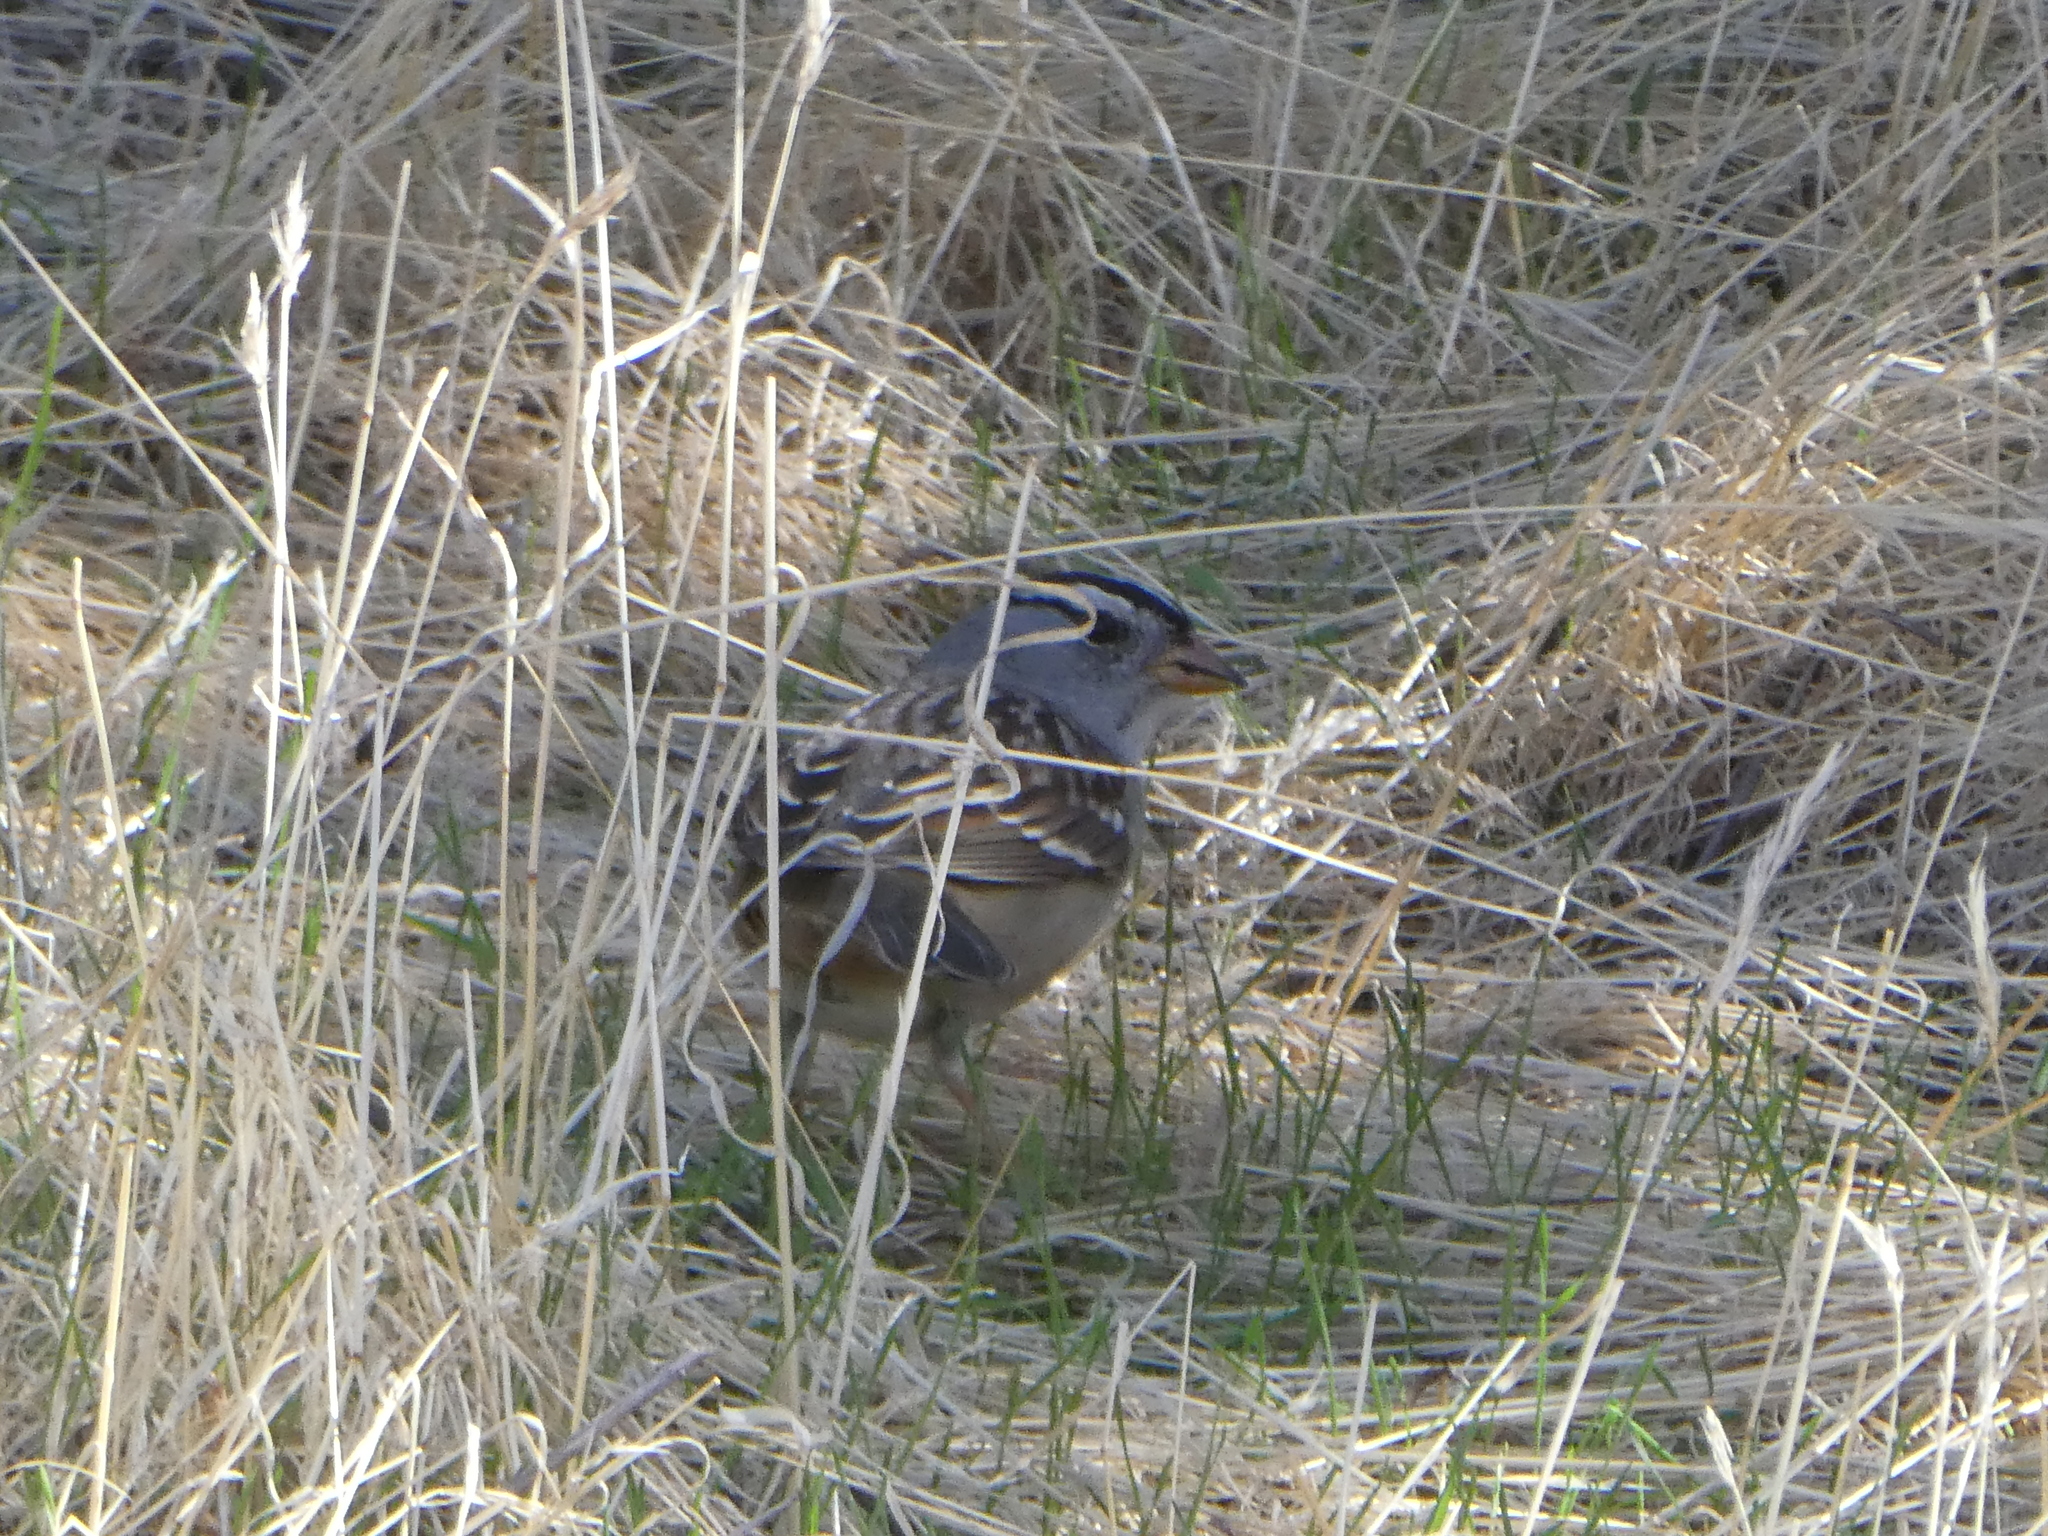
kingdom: Animalia
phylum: Chordata
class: Aves
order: Passeriformes
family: Passerellidae
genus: Zonotrichia
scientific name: Zonotrichia leucophrys
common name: White-crowned sparrow
